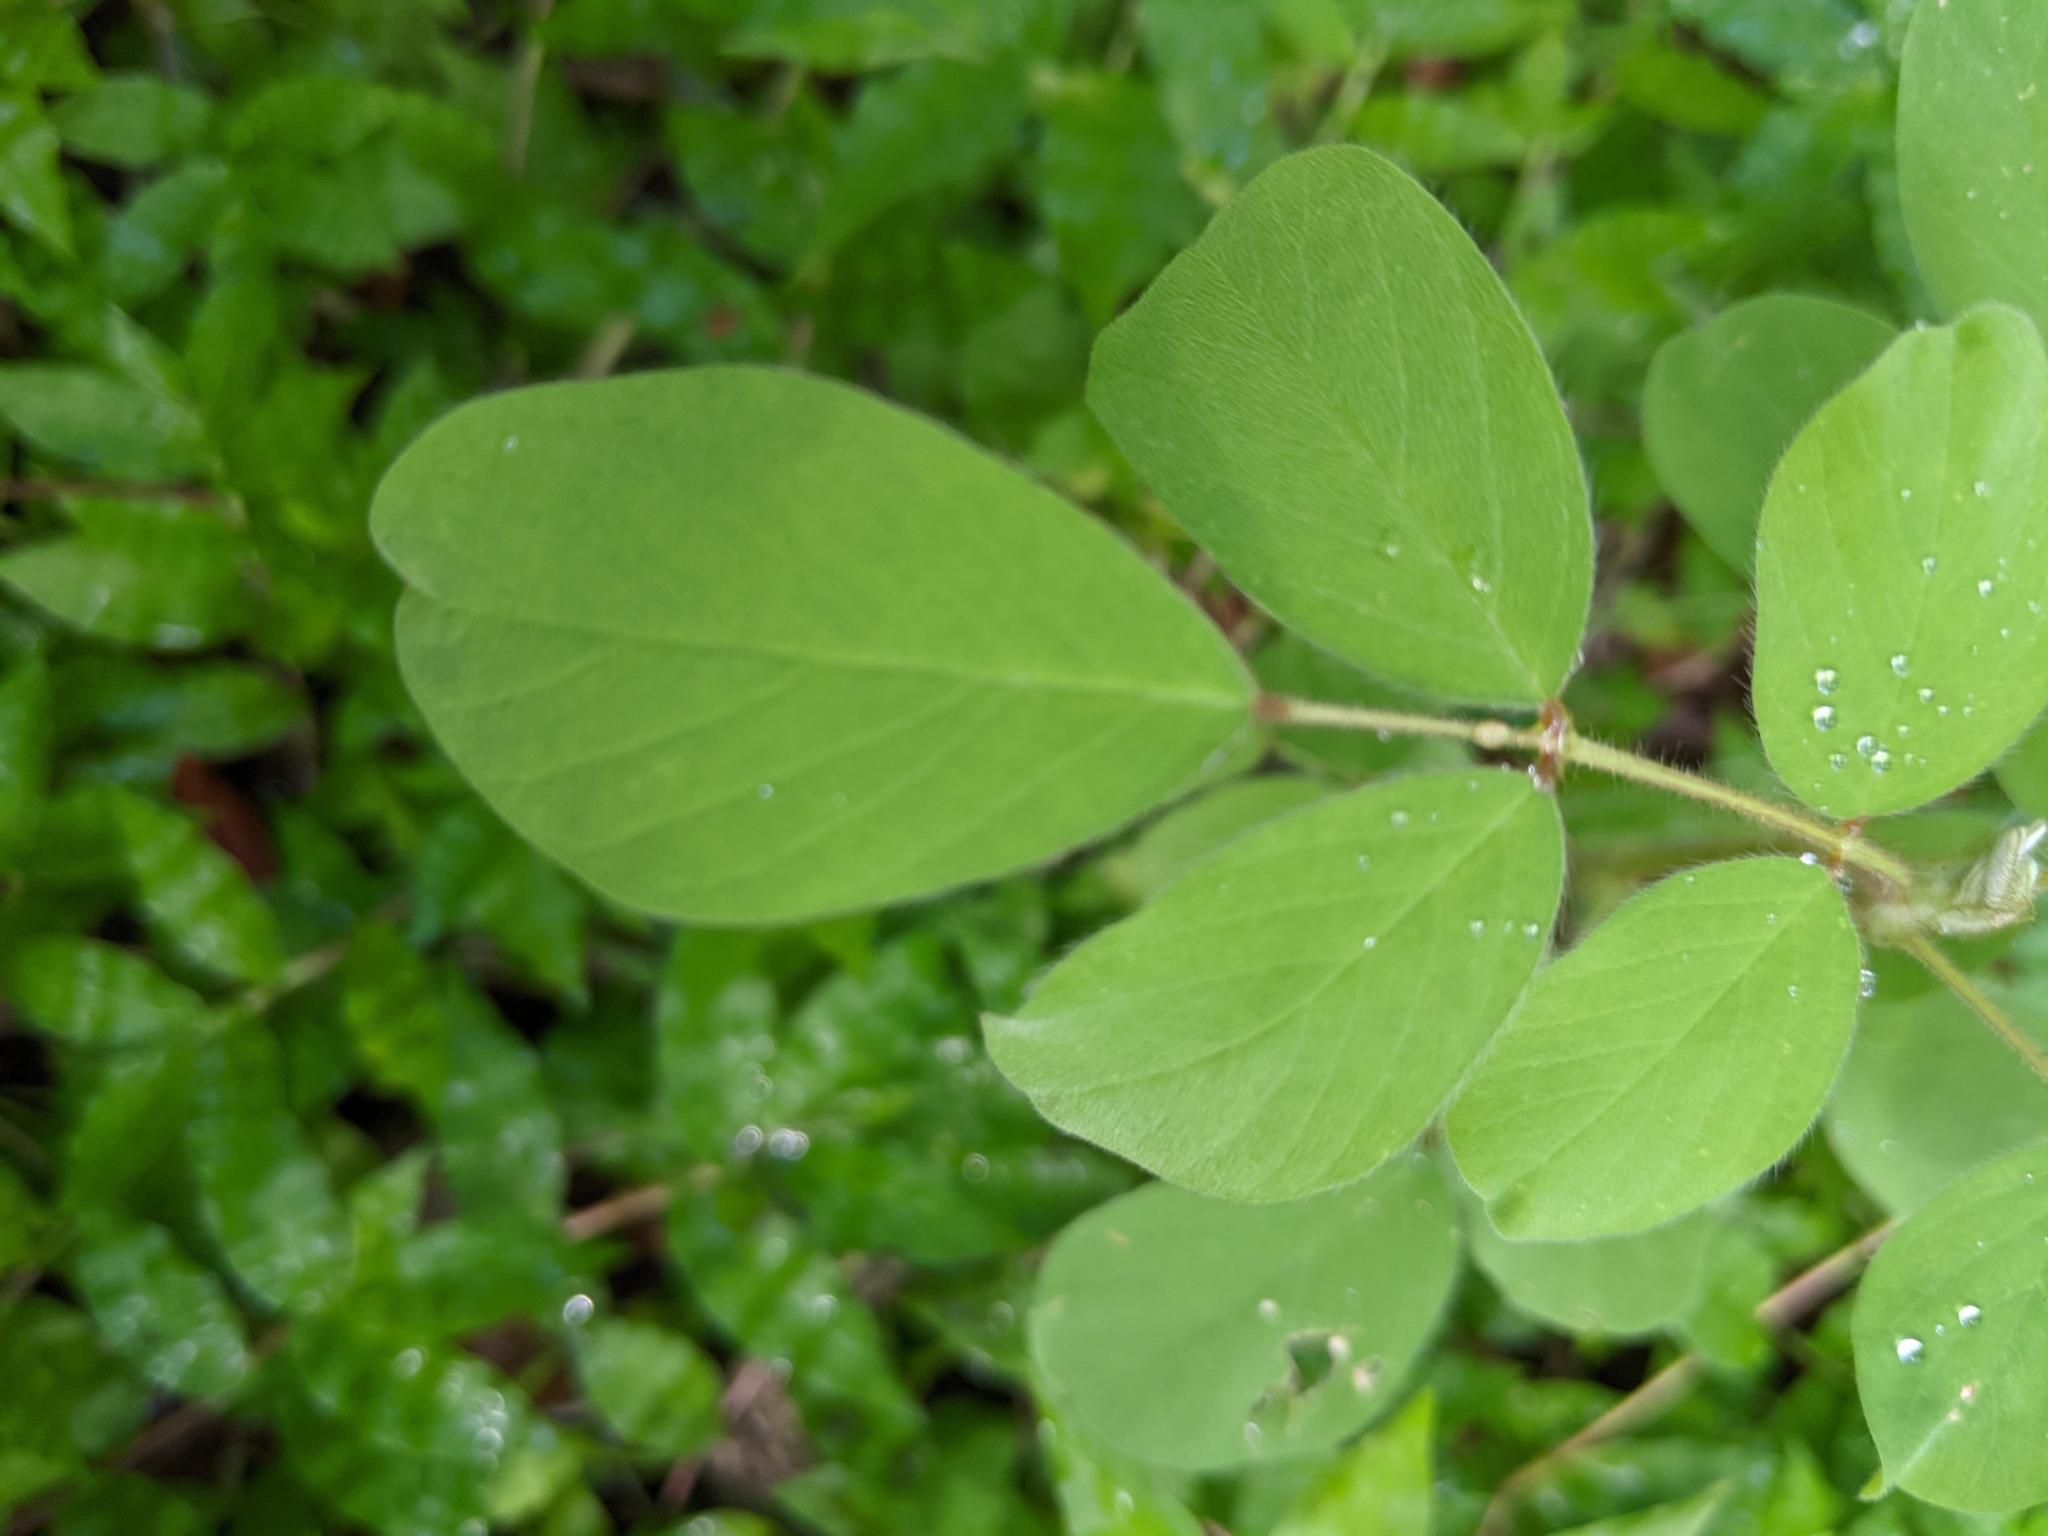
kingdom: Plantae
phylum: Tracheophyta
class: Magnoliopsida
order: Fabales
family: Fabaceae
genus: Indigofera
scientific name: Indigofera hirsuta
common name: Hairy indigo
